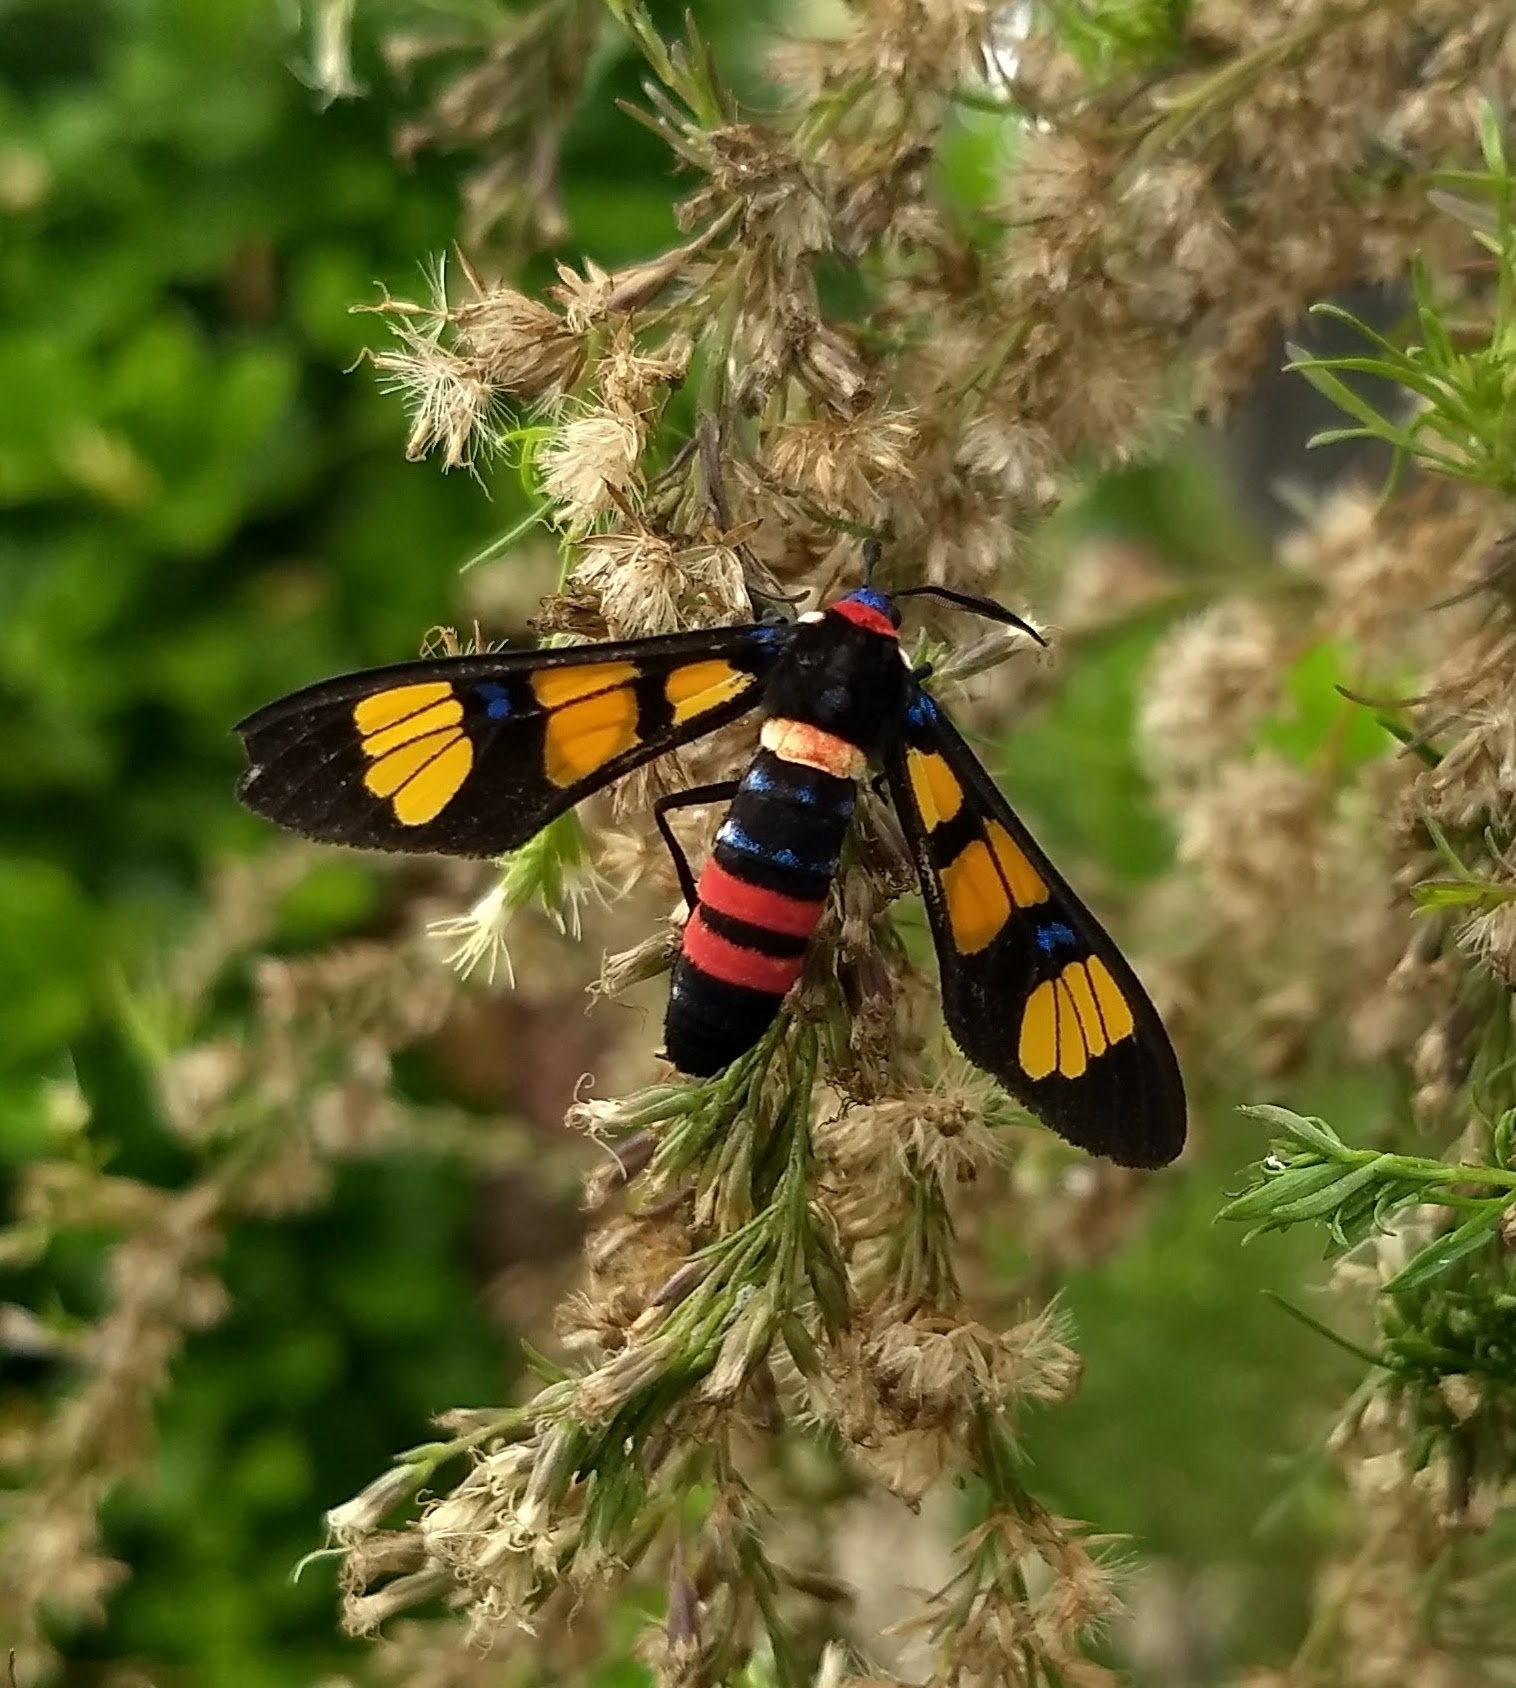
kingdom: Animalia
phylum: Arthropoda
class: Insecta
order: Lepidoptera
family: Erebidae
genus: Euchromia
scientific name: Euchromia polymena
